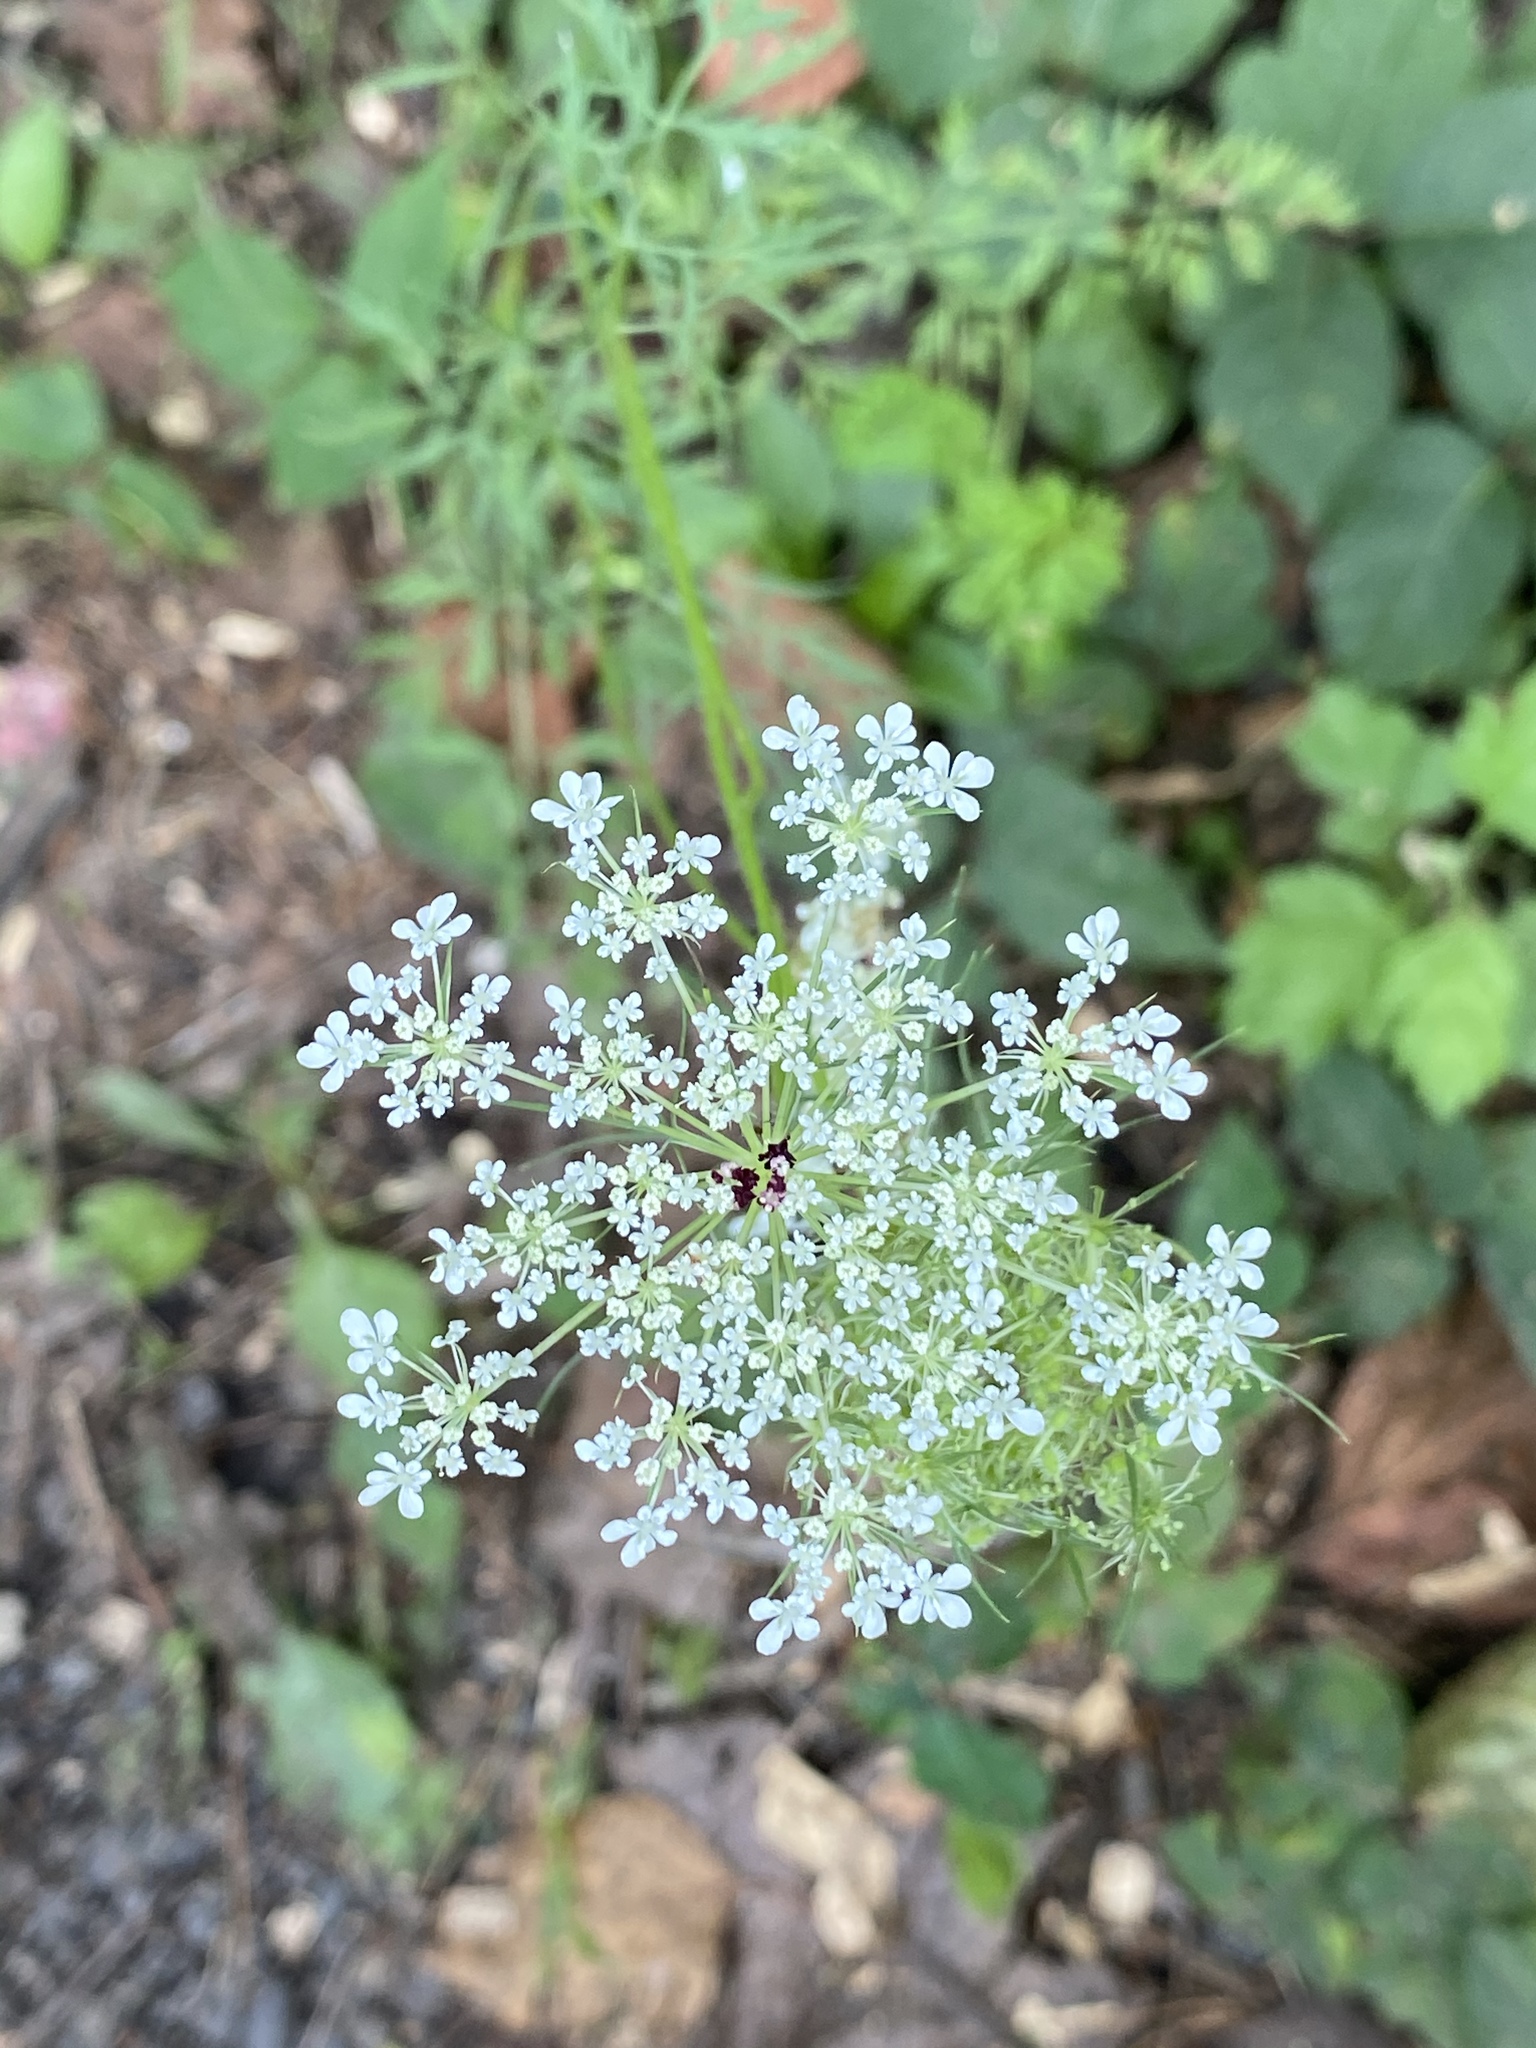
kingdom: Plantae
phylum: Tracheophyta
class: Magnoliopsida
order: Apiales
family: Apiaceae
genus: Daucus
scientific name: Daucus carota
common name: Wild carrot
